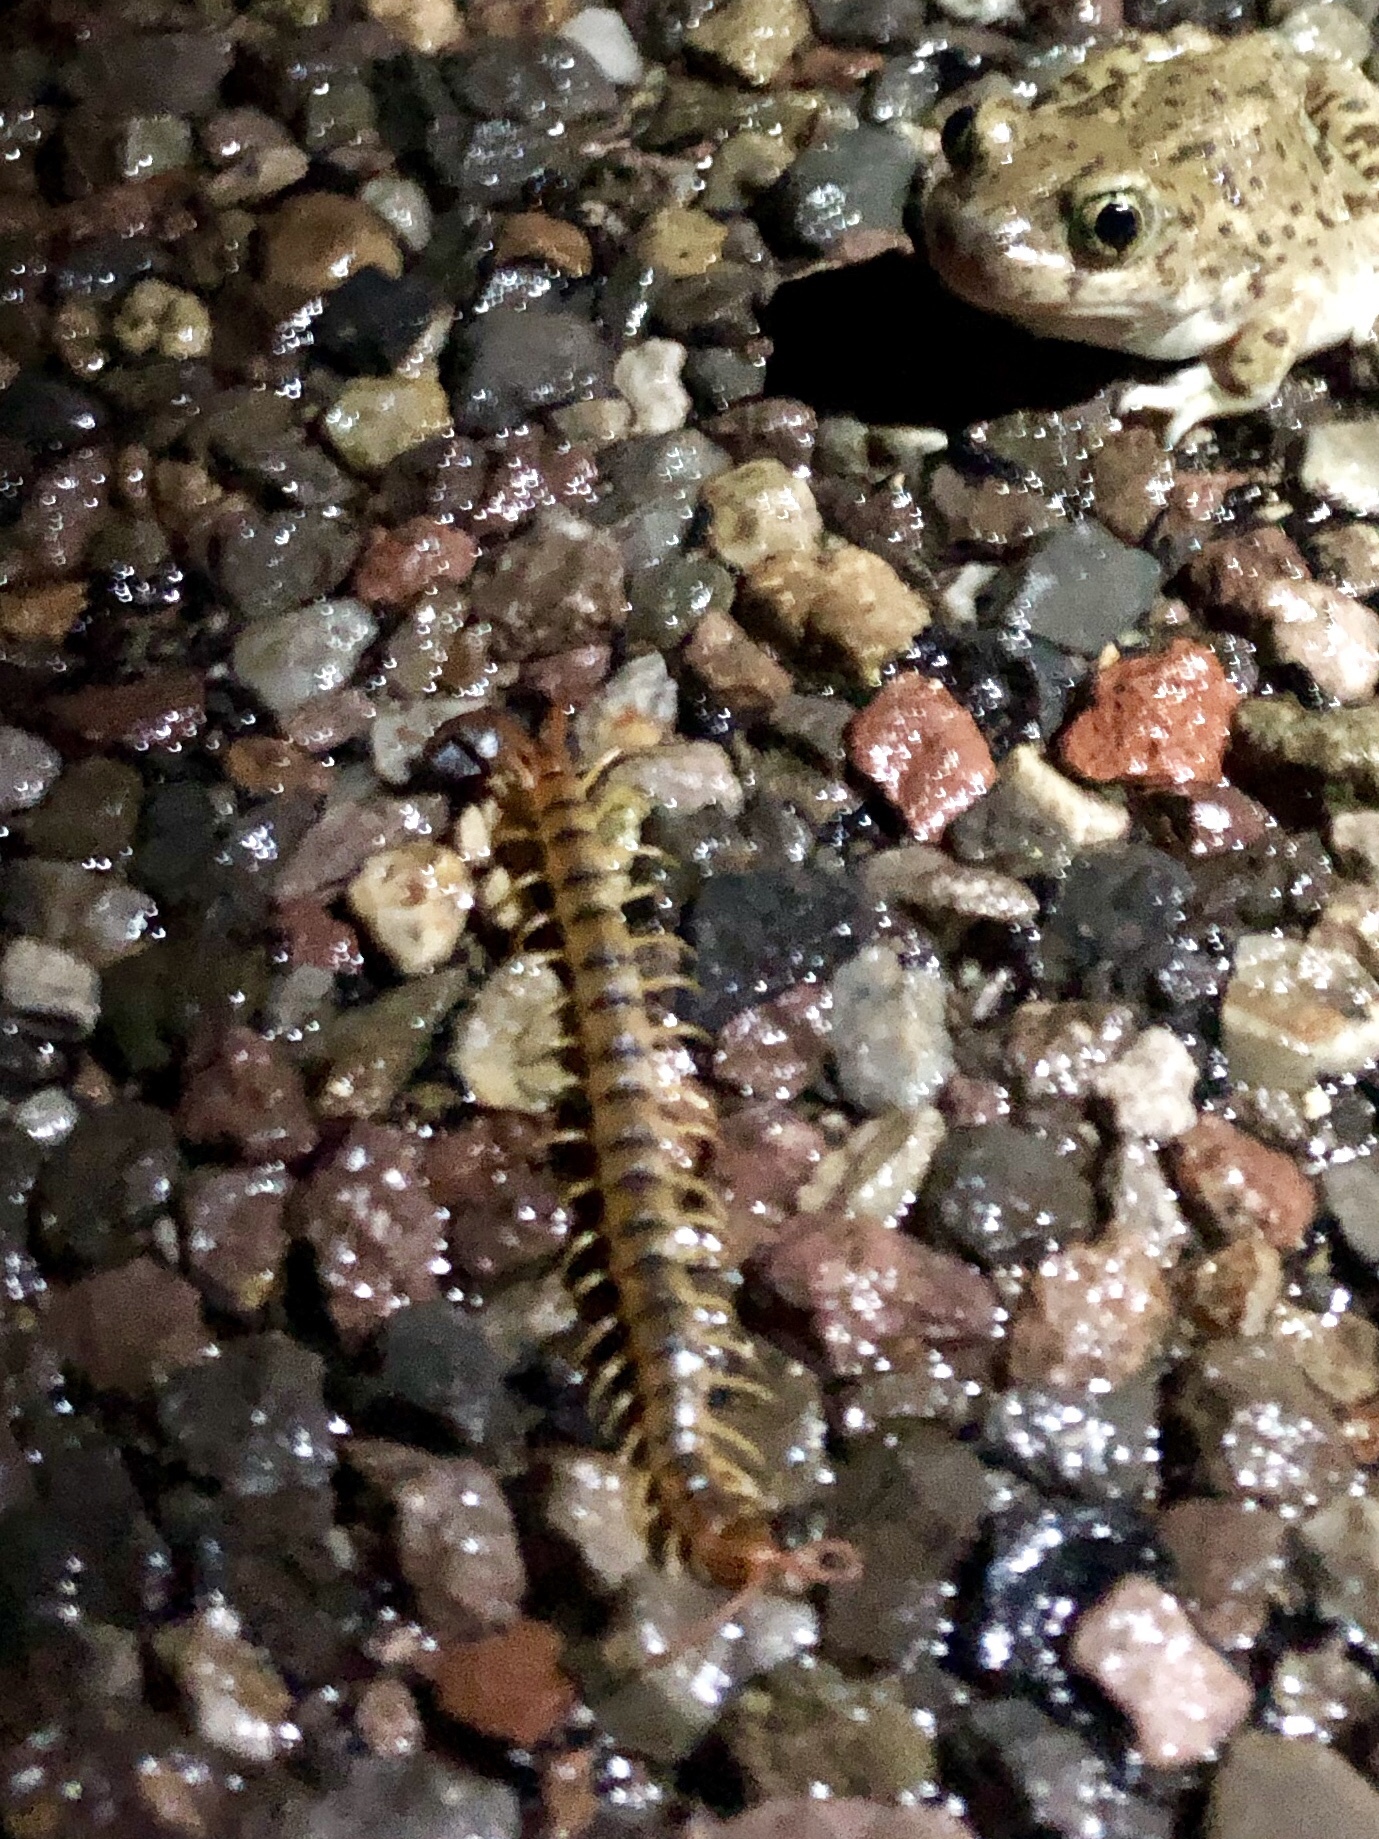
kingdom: Animalia
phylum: Arthropoda
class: Chilopoda
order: Scolopendromorpha
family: Scolopendridae
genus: Scolopendra
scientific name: Scolopendra polymorpha
